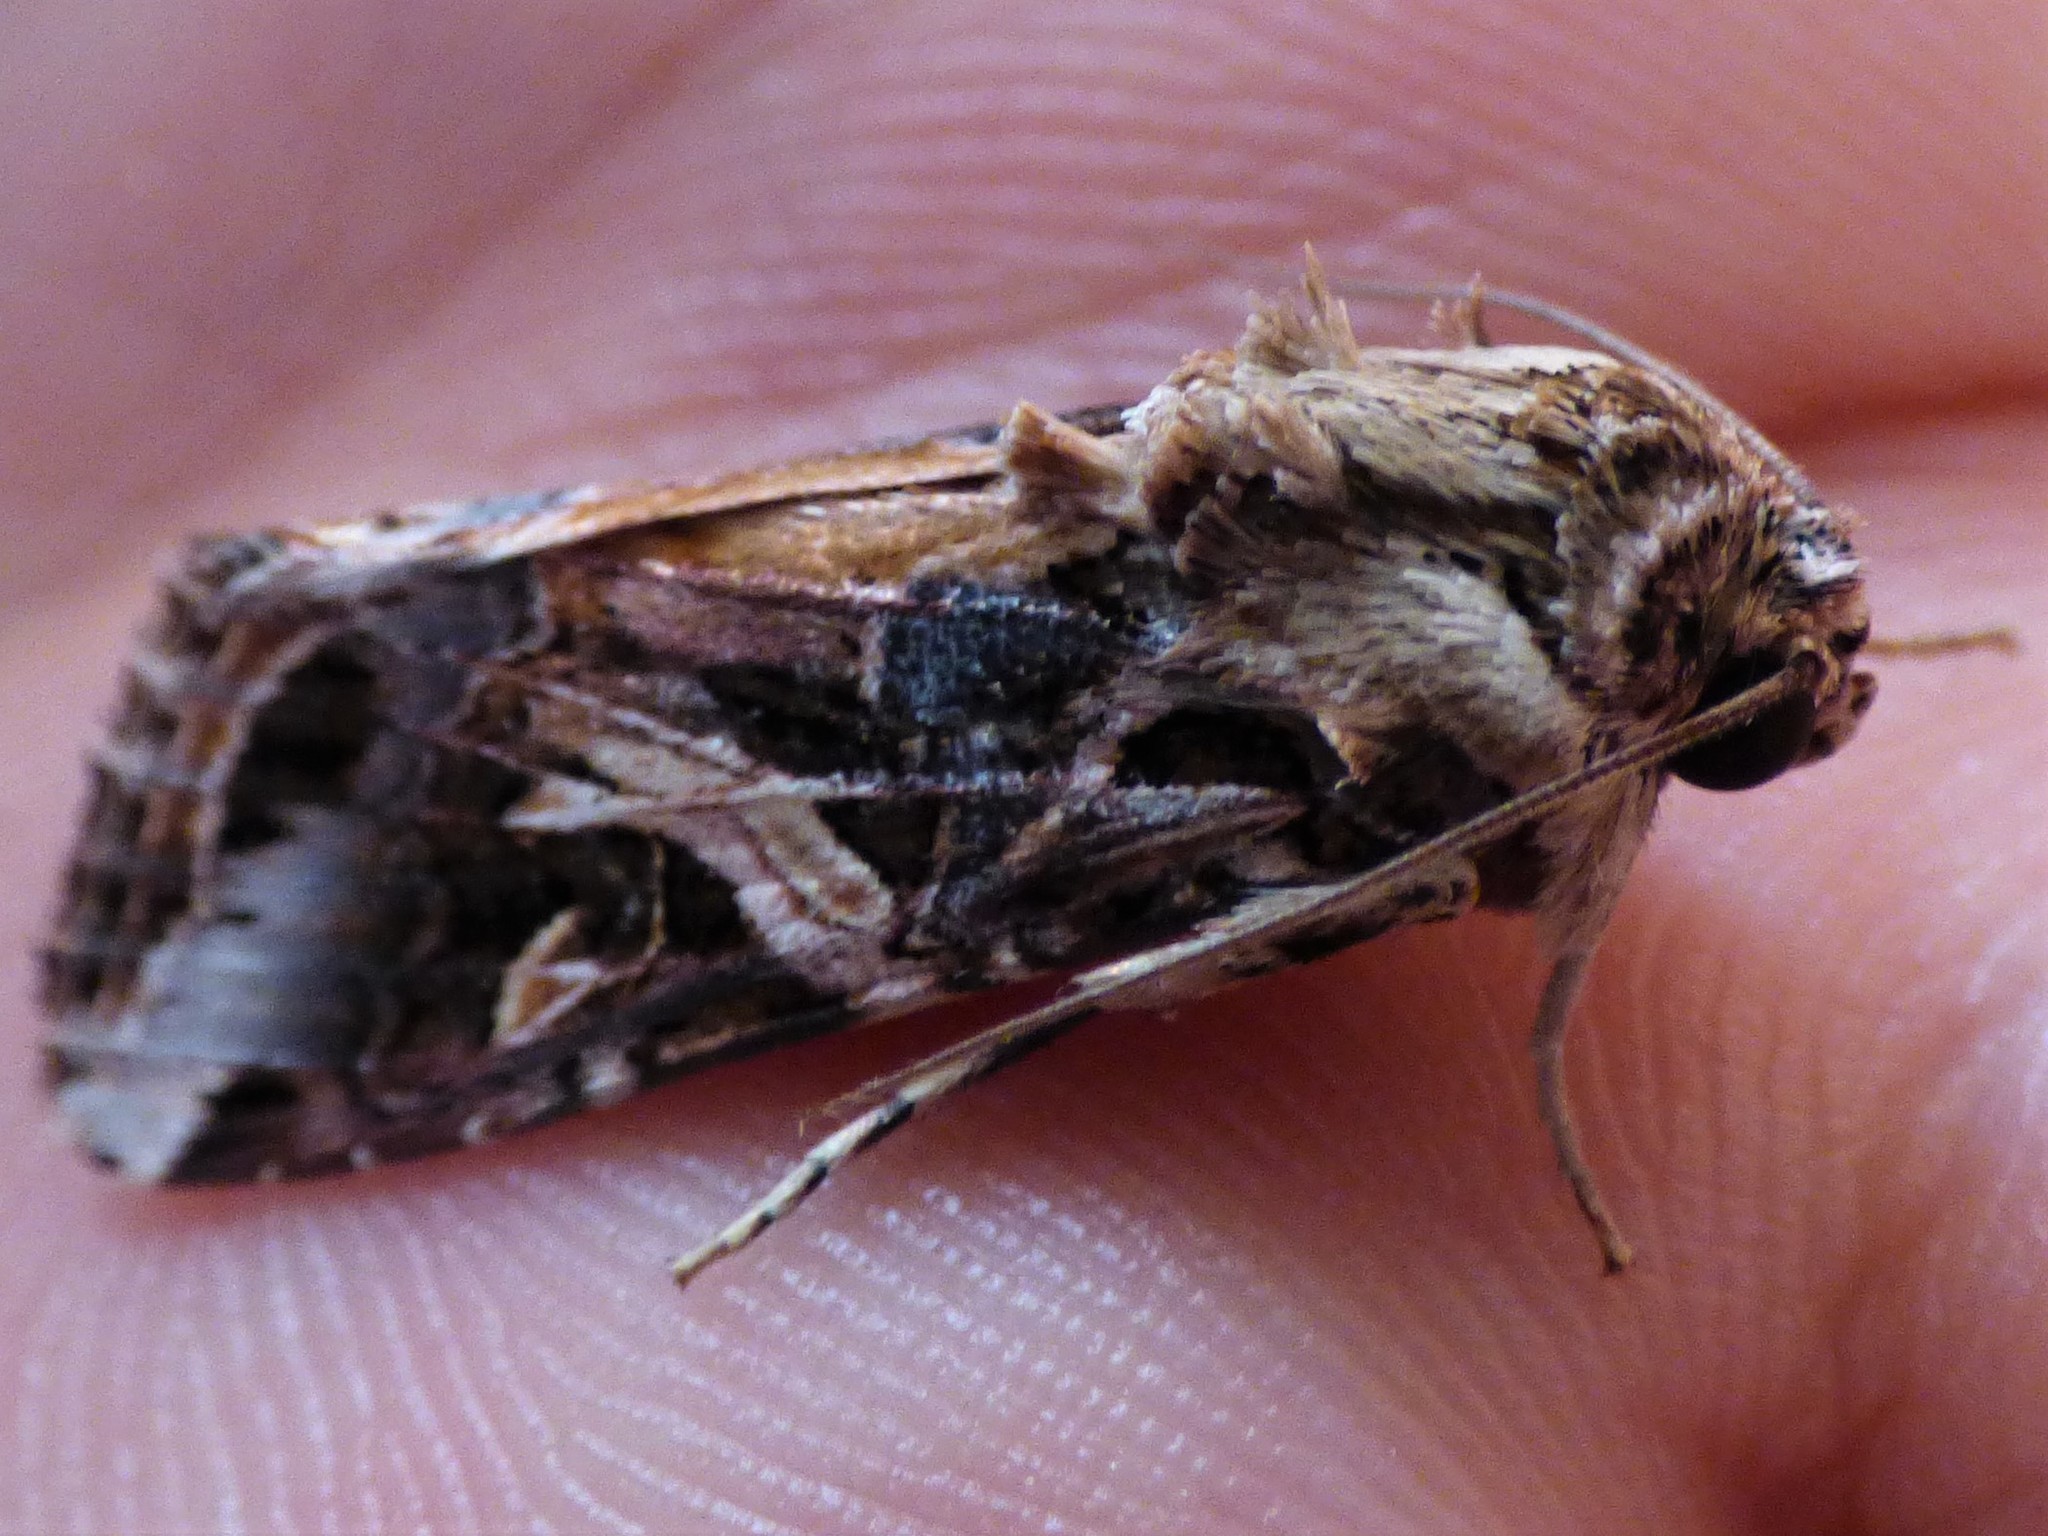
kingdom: Animalia
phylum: Arthropoda
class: Insecta
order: Lepidoptera
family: Noctuidae
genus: Spodoptera
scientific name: Spodoptera litura
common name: Asian cotton leafworm
